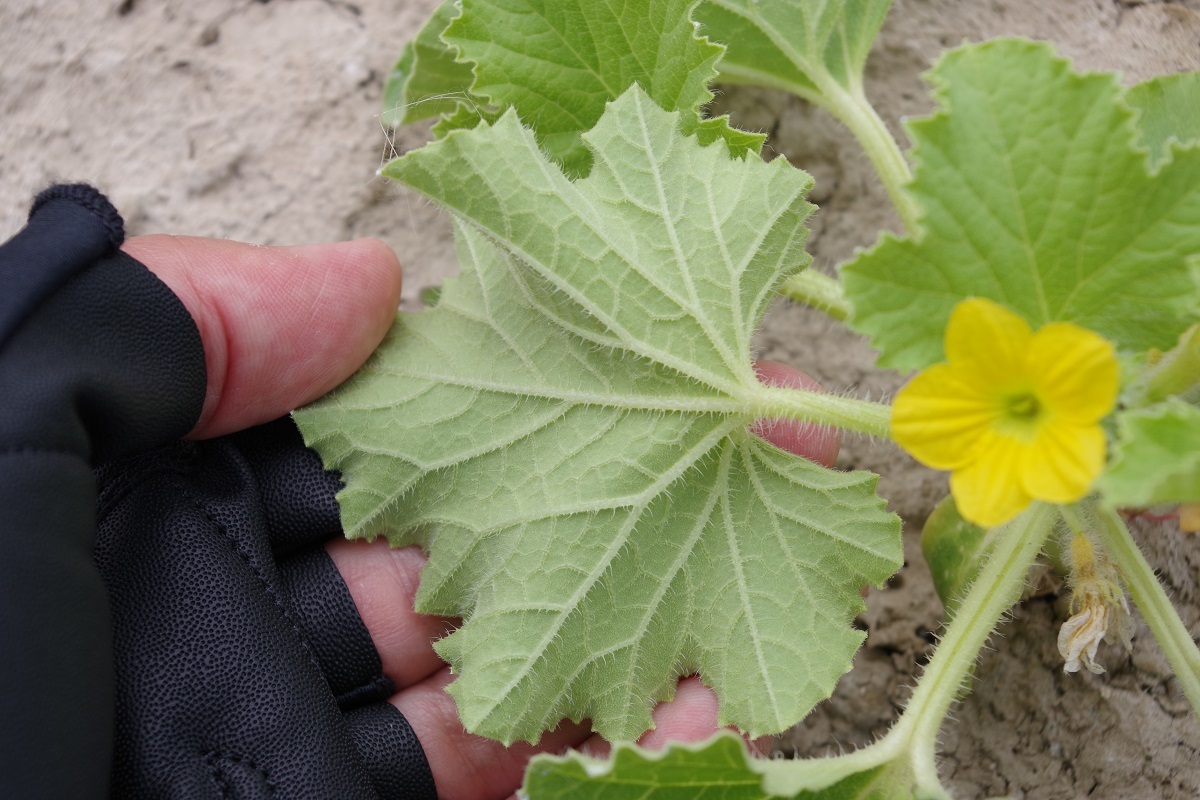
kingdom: Plantae
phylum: Tracheophyta
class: Magnoliopsida
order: Cucurbitales
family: Cucurbitaceae
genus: Cucumis
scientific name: Cucumis melo
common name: Melon
